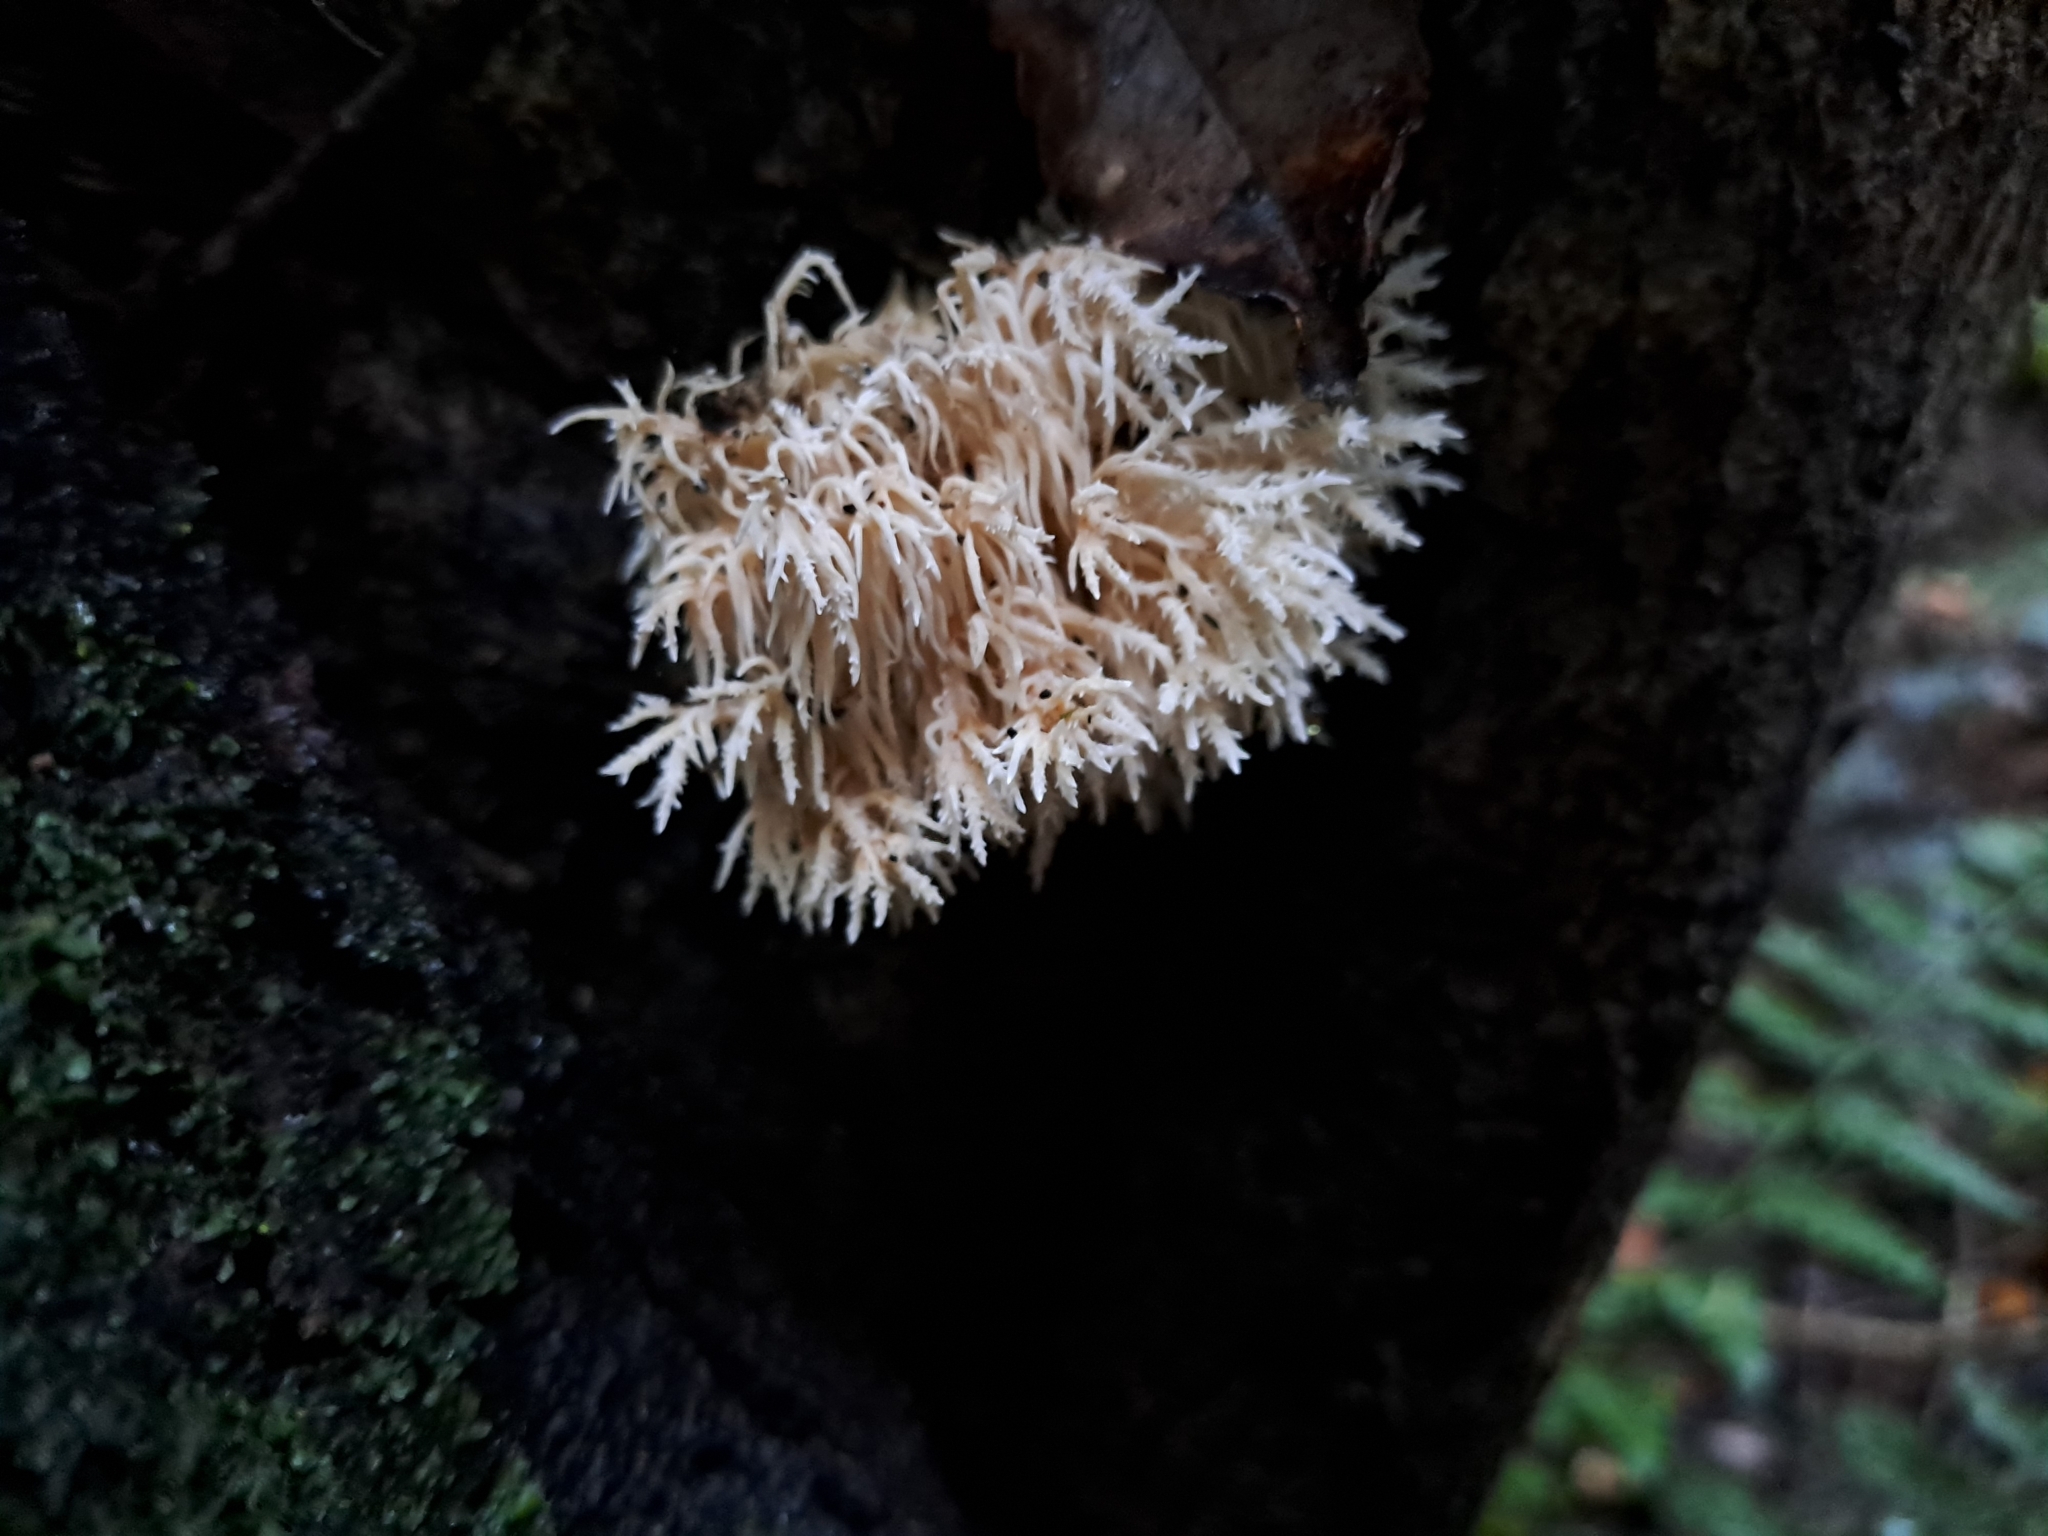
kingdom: Fungi
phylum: Basidiomycota
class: Agaricomycetes
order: Russulales
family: Hericiaceae
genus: Hericium
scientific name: Hericium novae-zealandiae
